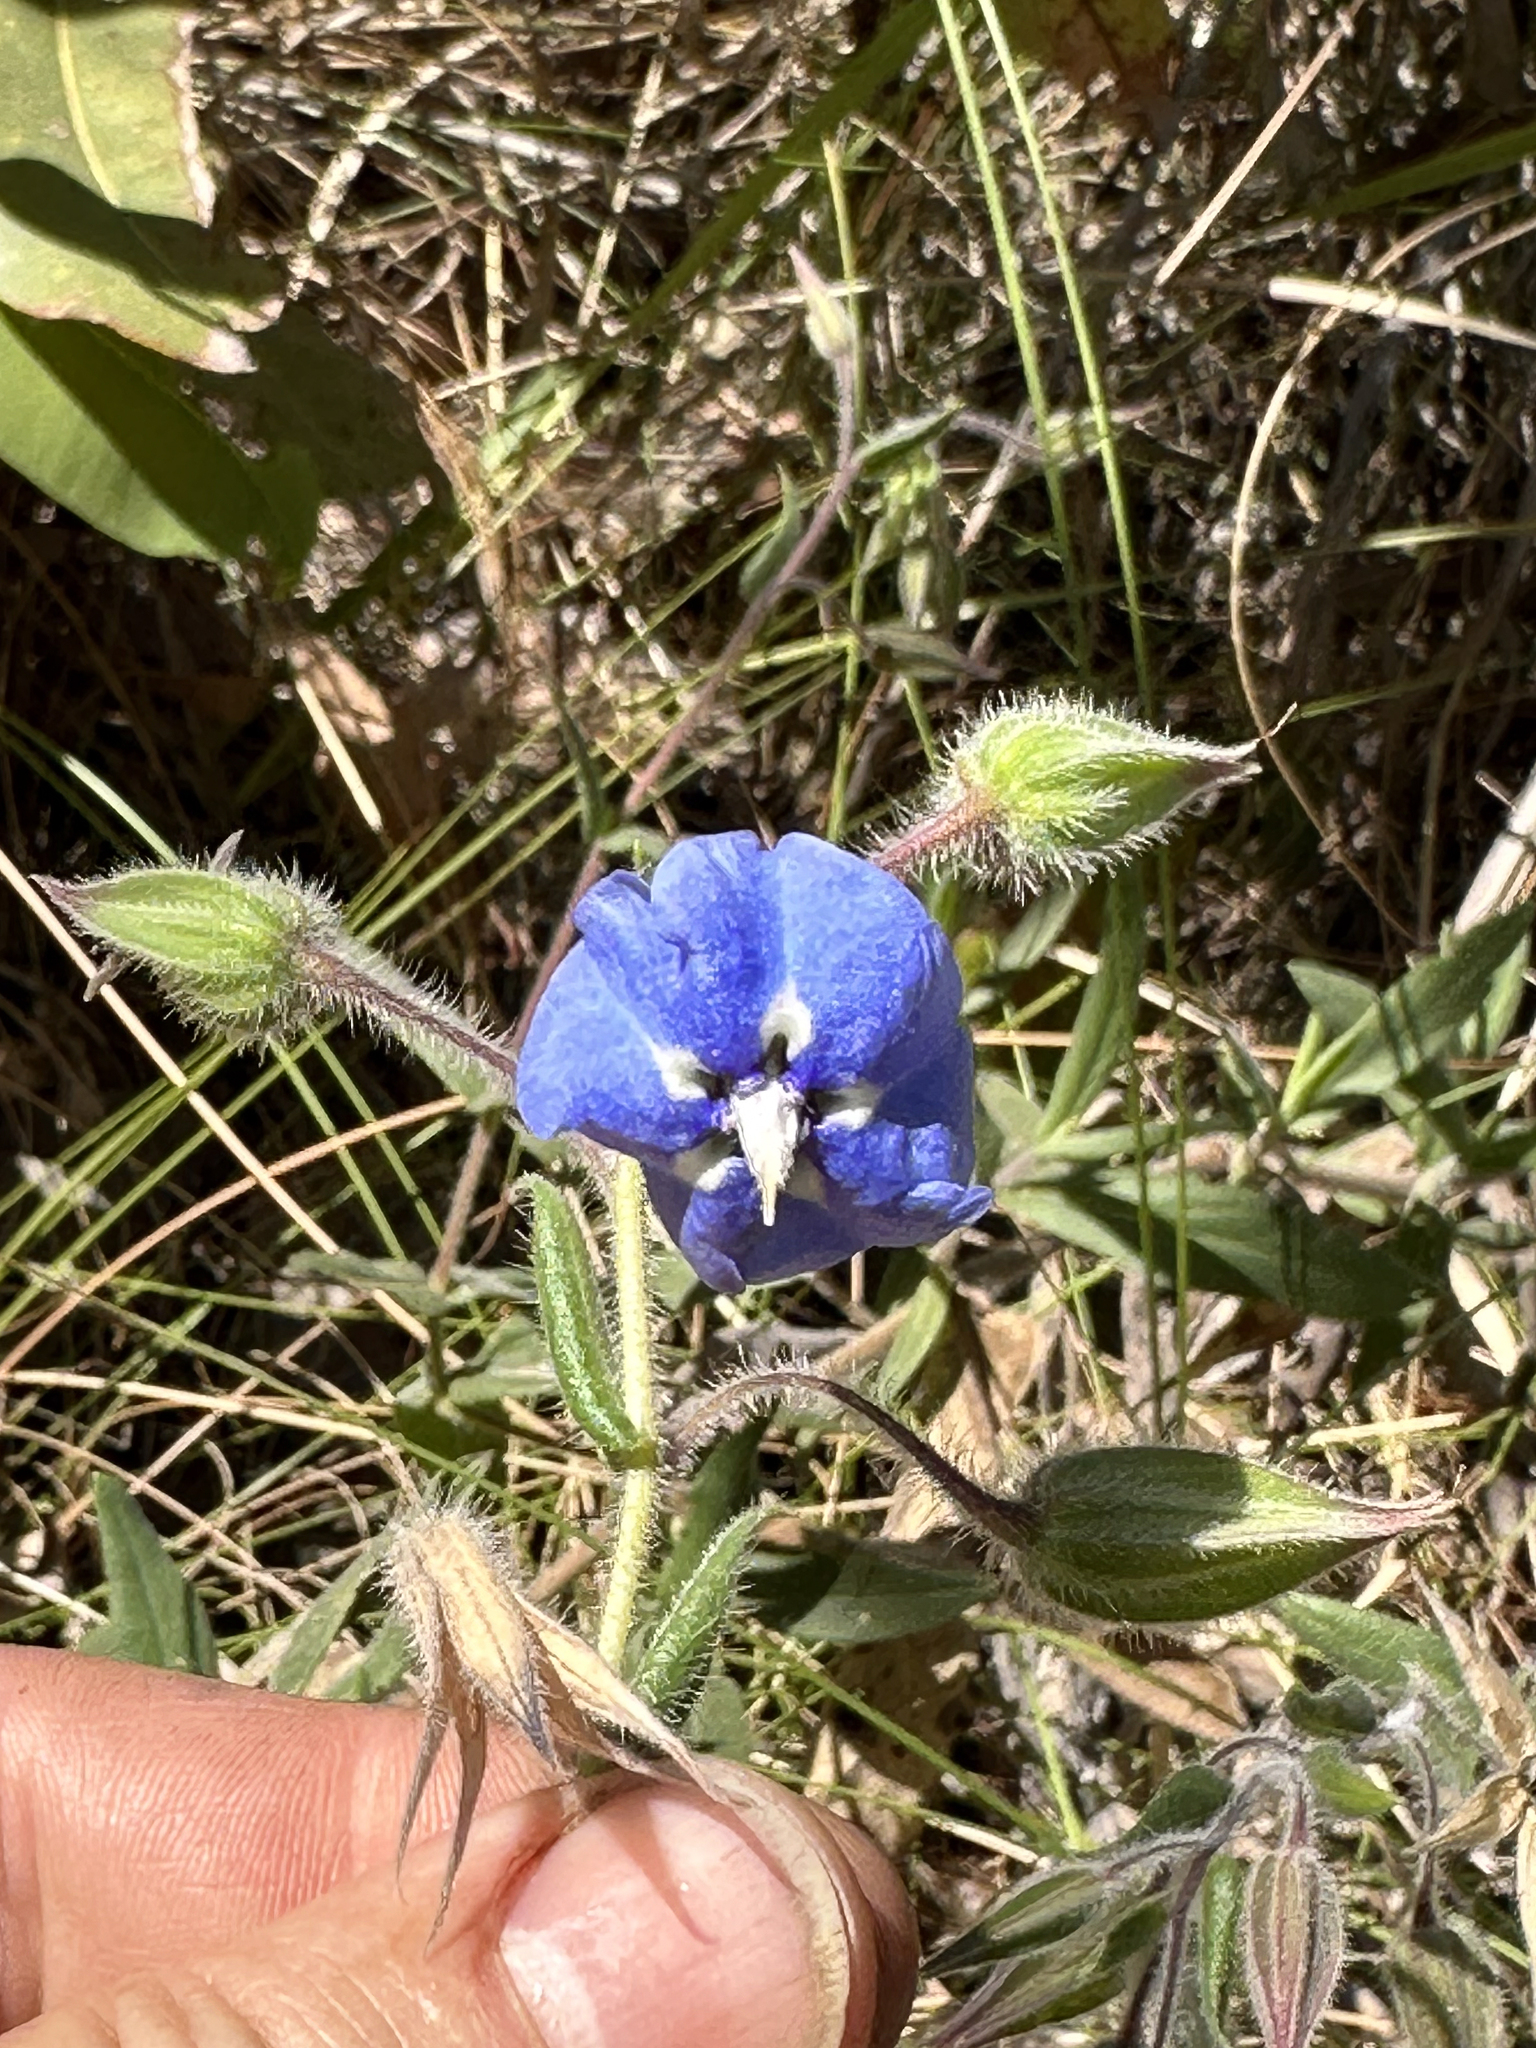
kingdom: Plantae
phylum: Tracheophyta
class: Magnoliopsida
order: Boraginales
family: Boraginaceae
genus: Trichodesma
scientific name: Trichodesma zeylanicum
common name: Camelbush
